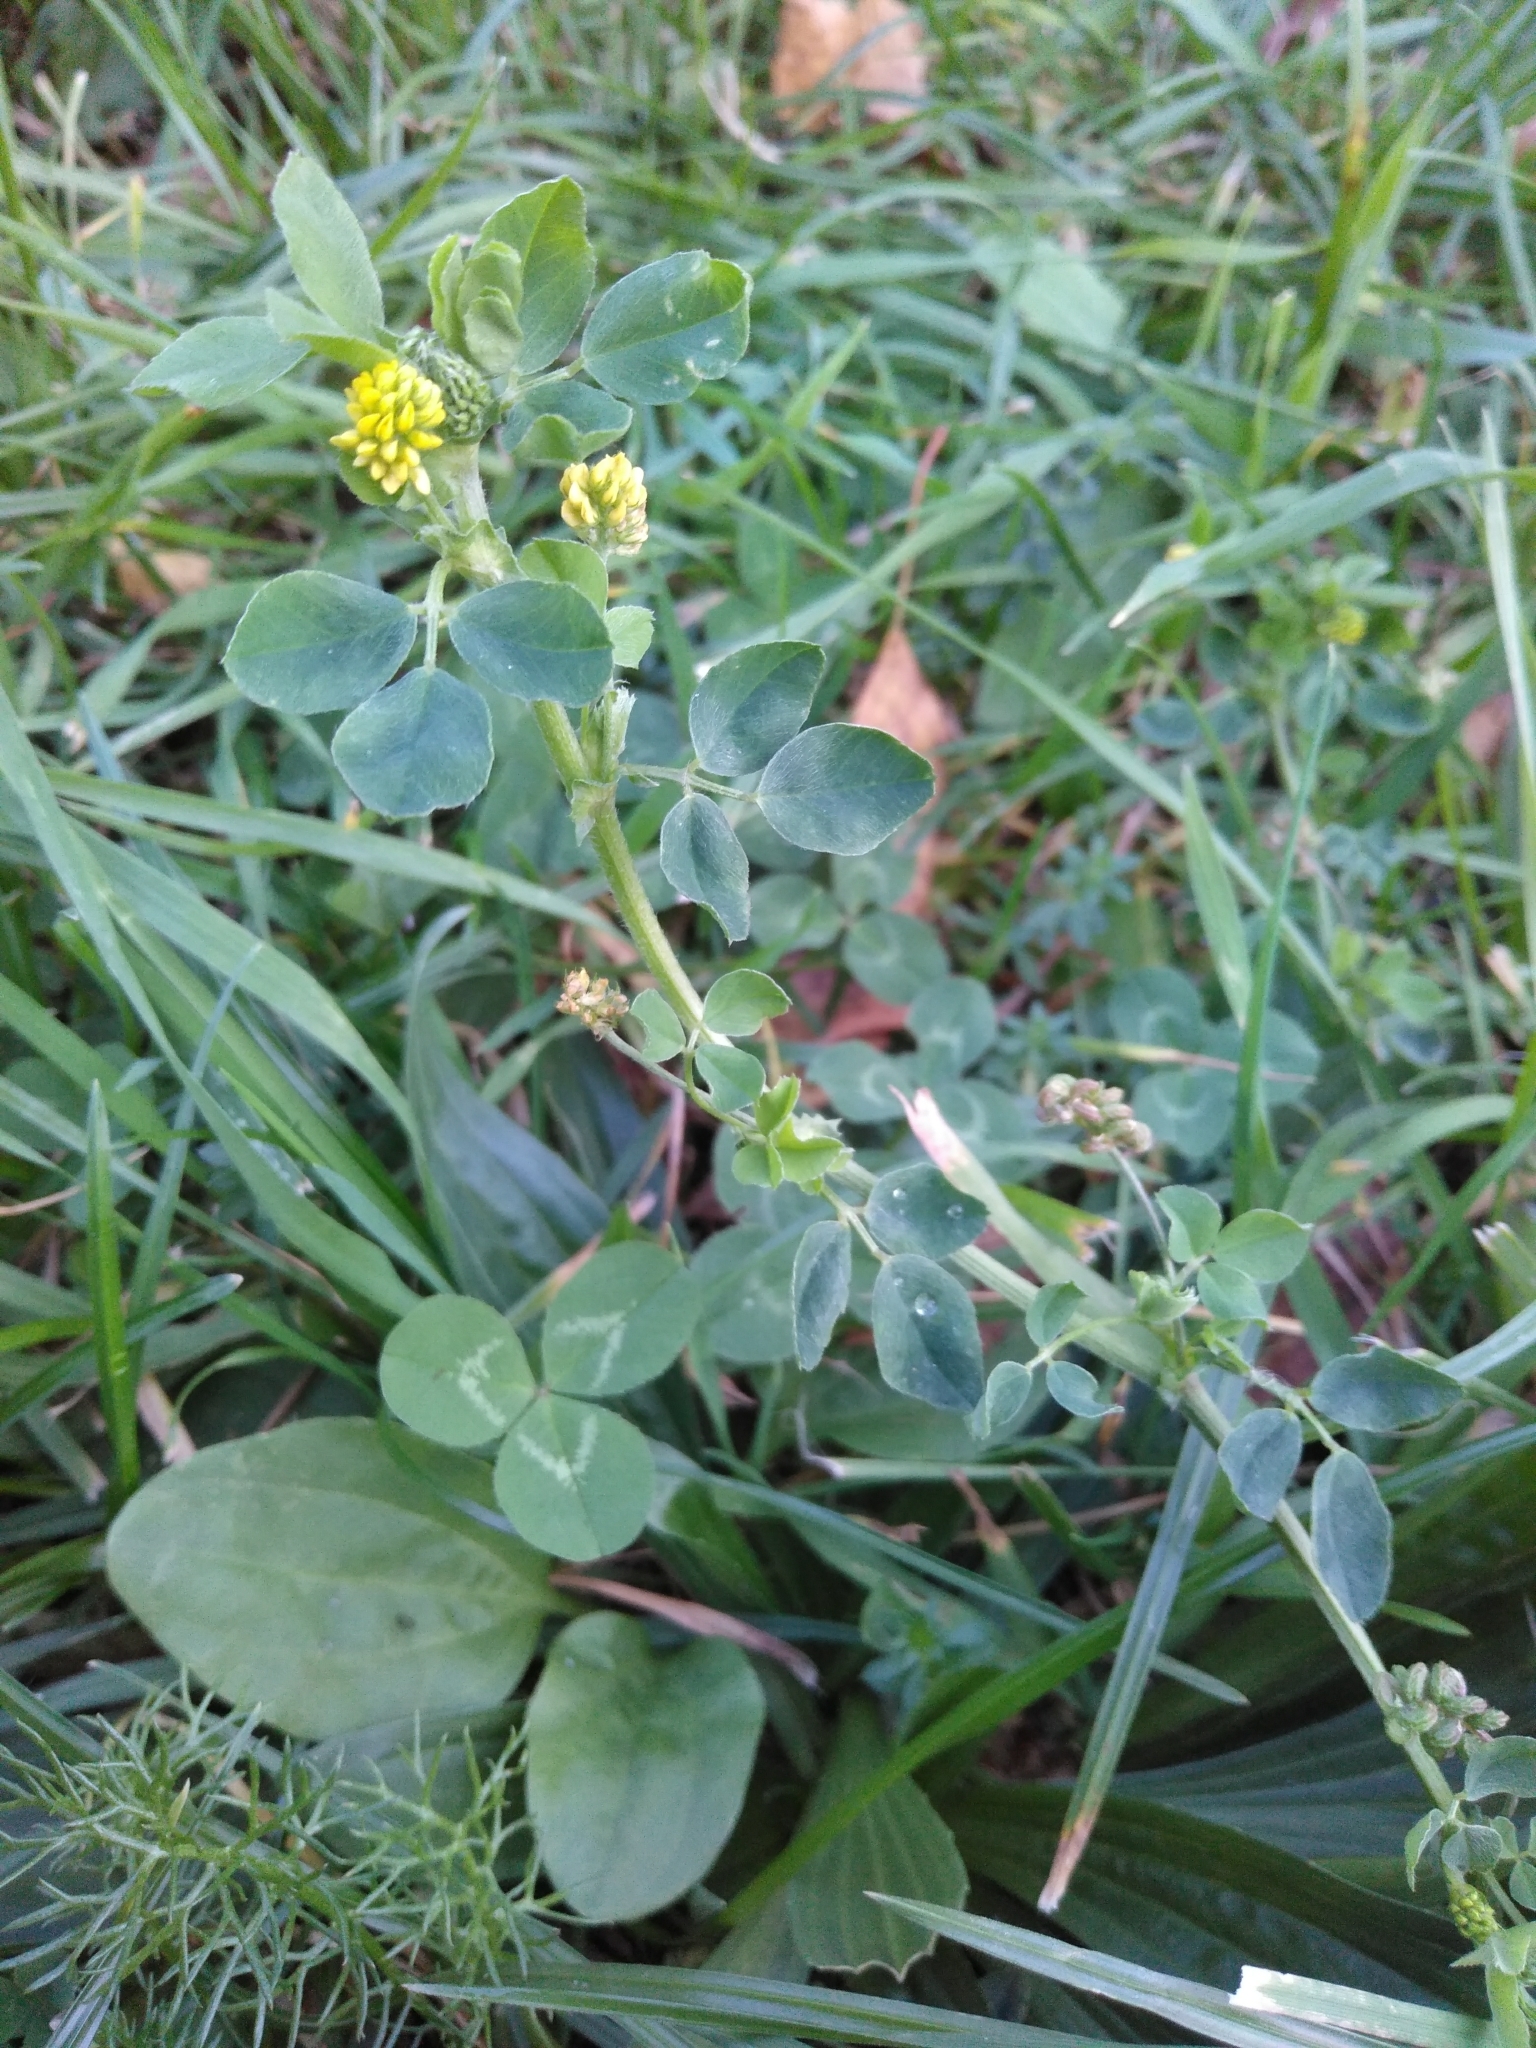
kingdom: Plantae
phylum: Tracheophyta
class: Magnoliopsida
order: Fabales
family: Fabaceae
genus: Medicago
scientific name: Medicago lupulina
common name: Black medick
